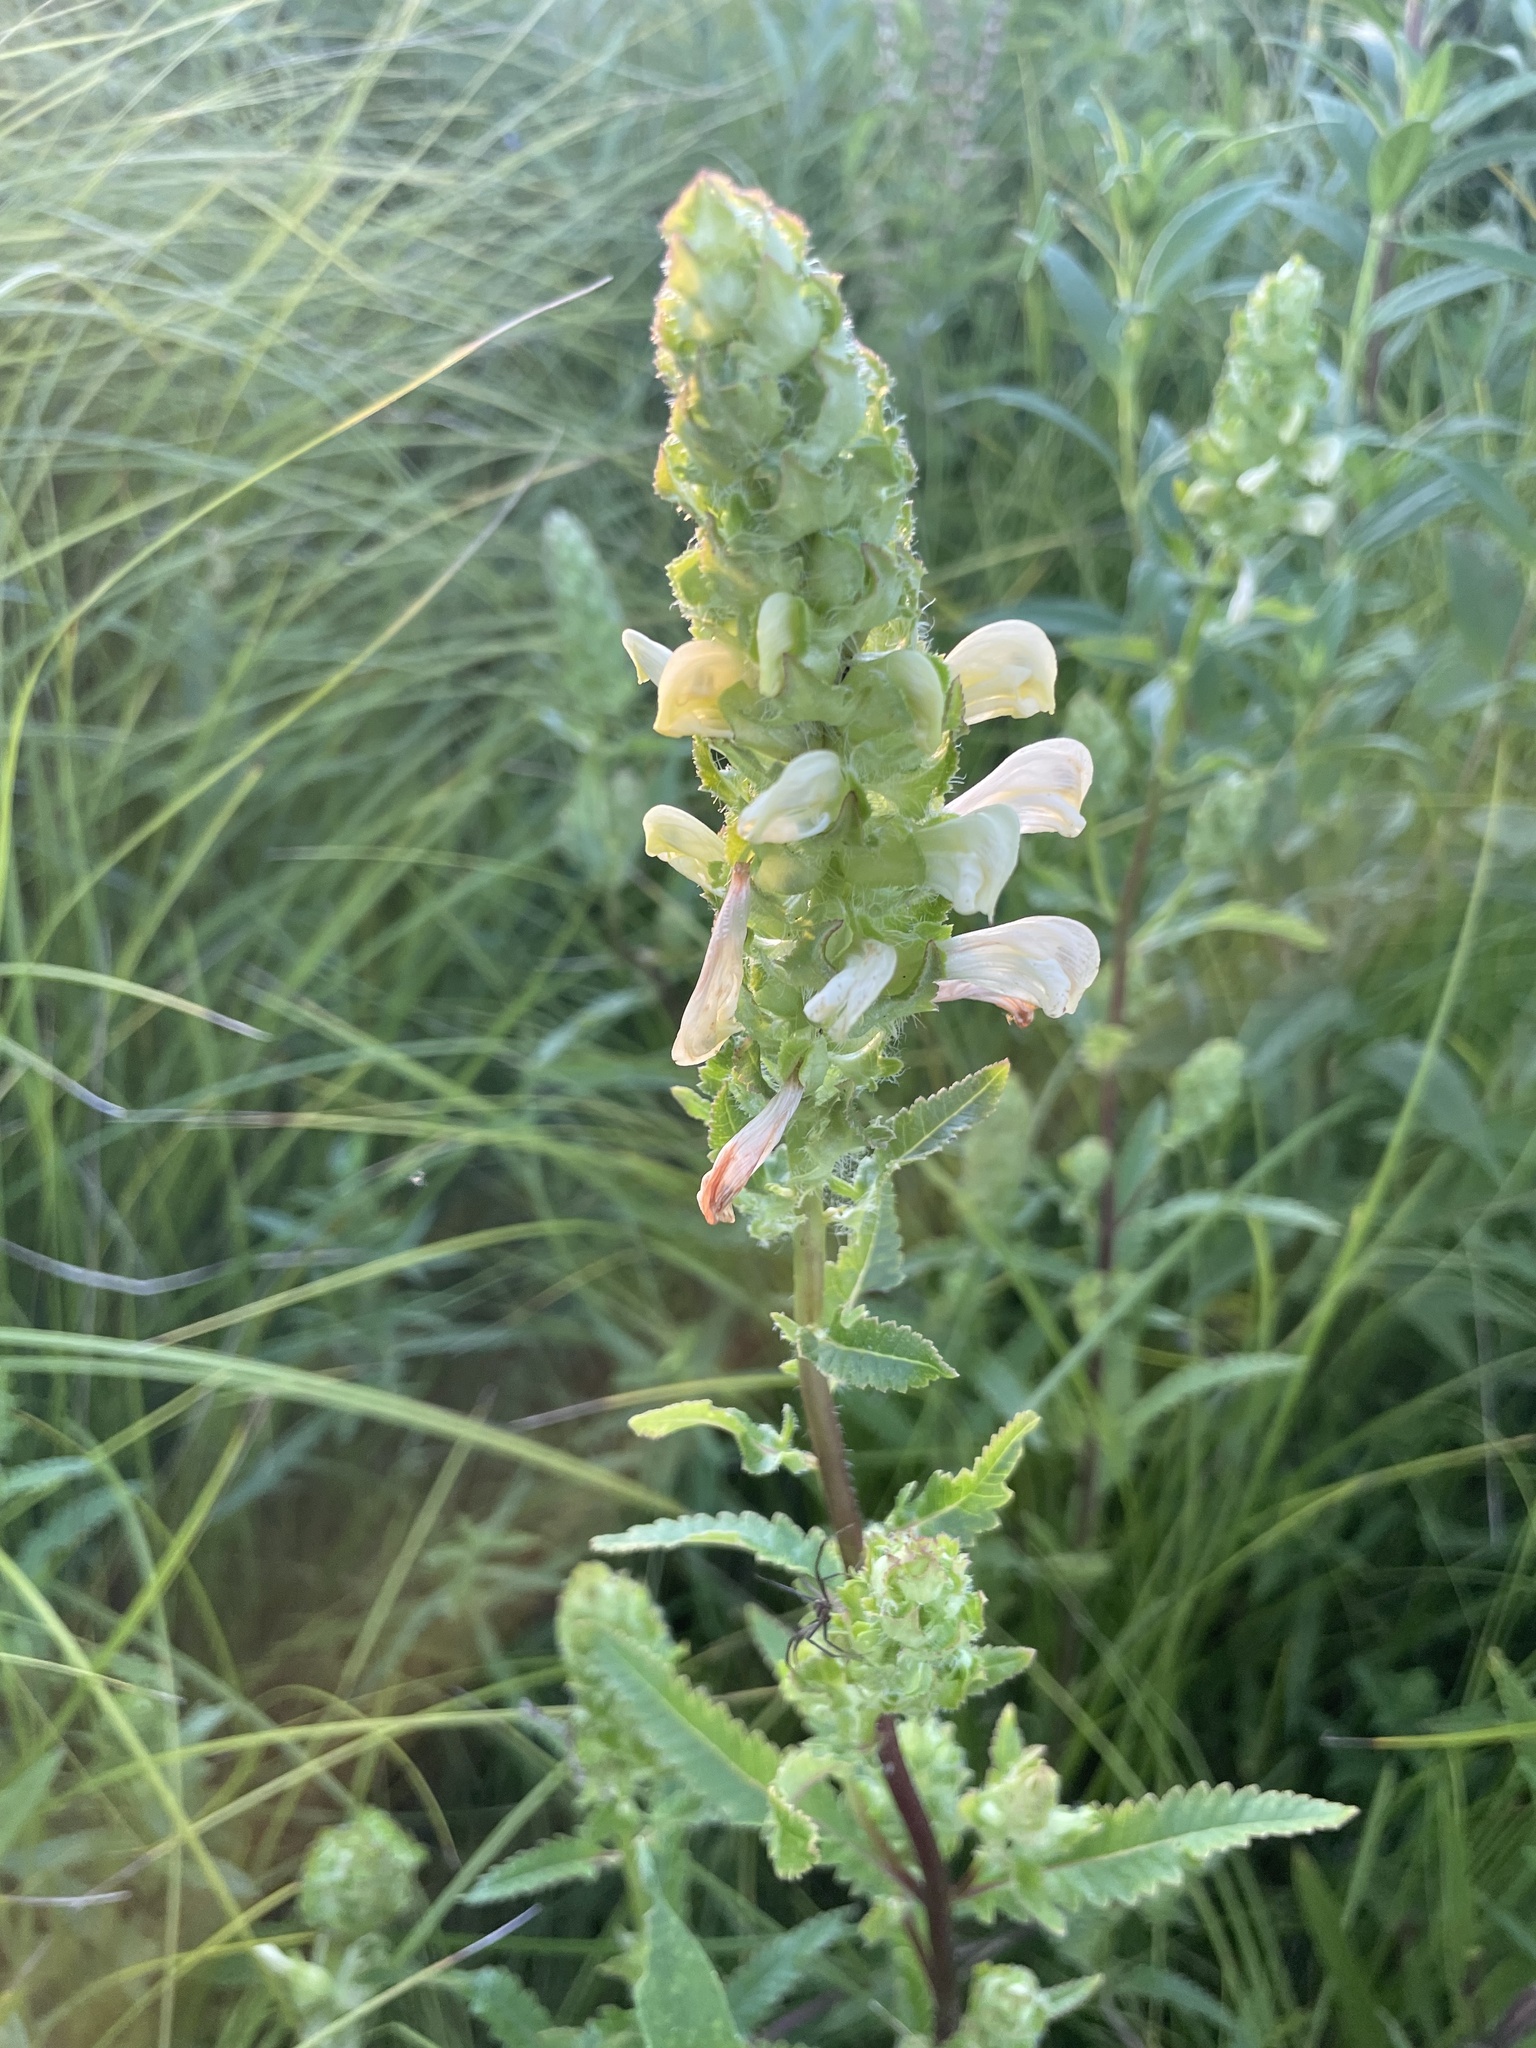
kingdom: Plantae
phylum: Tracheophyta
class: Magnoliopsida
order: Lamiales
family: Orobanchaceae
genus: Pedicularis
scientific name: Pedicularis lanceolata
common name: Swamp lousewort
